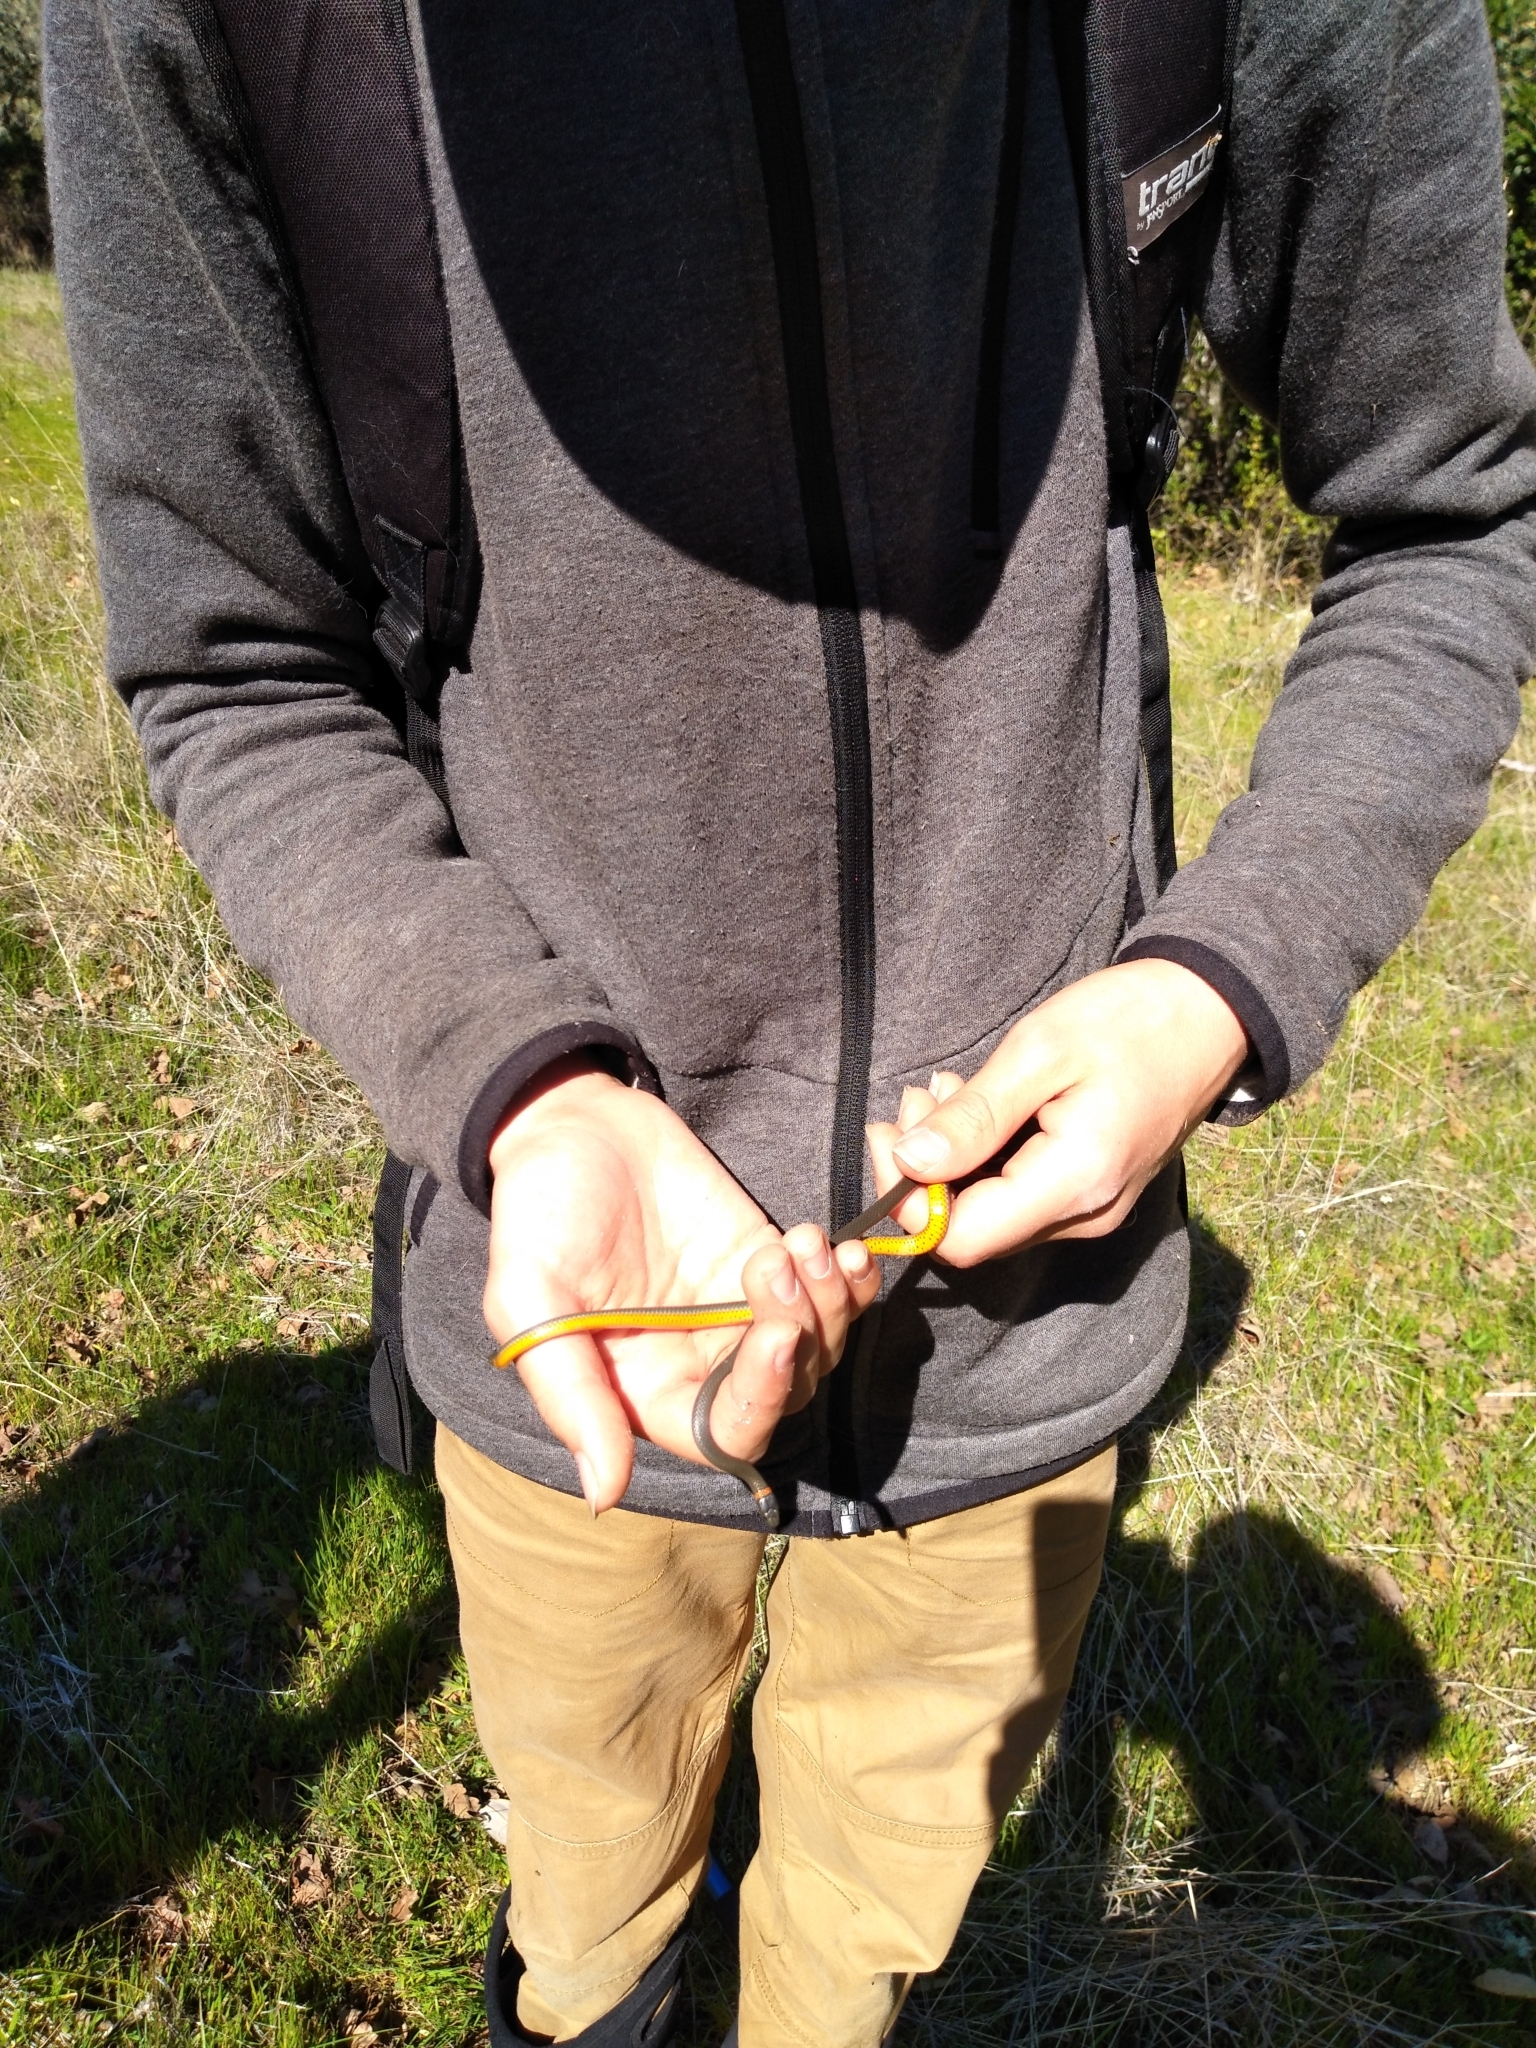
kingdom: Animalia
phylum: Chordata
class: Squamata
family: Colubridae
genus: Diadophis
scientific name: Diadophis punctatus
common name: Ringneck snake
